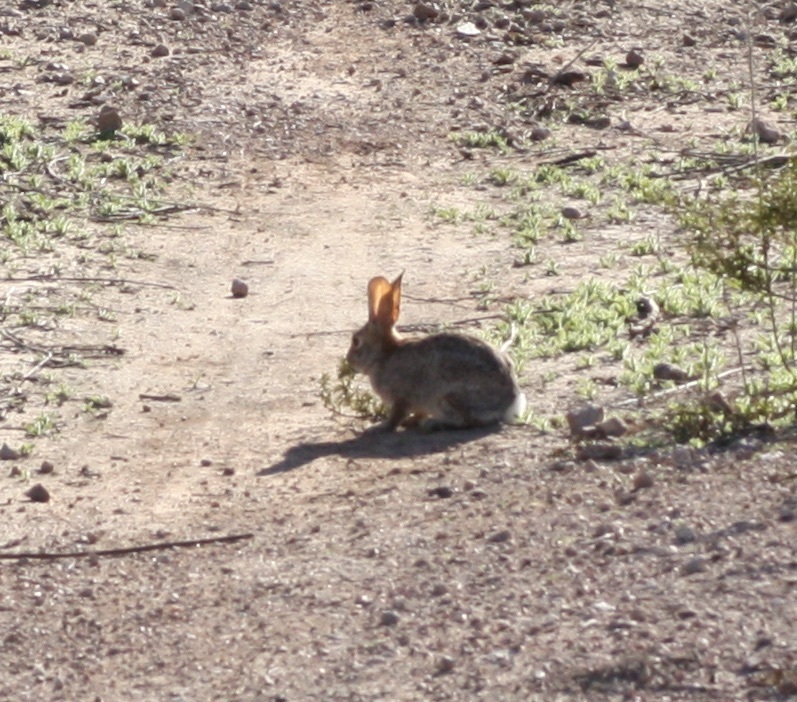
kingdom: Animalia
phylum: Chordata
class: Mammalia
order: Lagomorpha
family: Leporidae
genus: Sylvilagus
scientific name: Sylvilagus audubonii
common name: Desert cottontail
